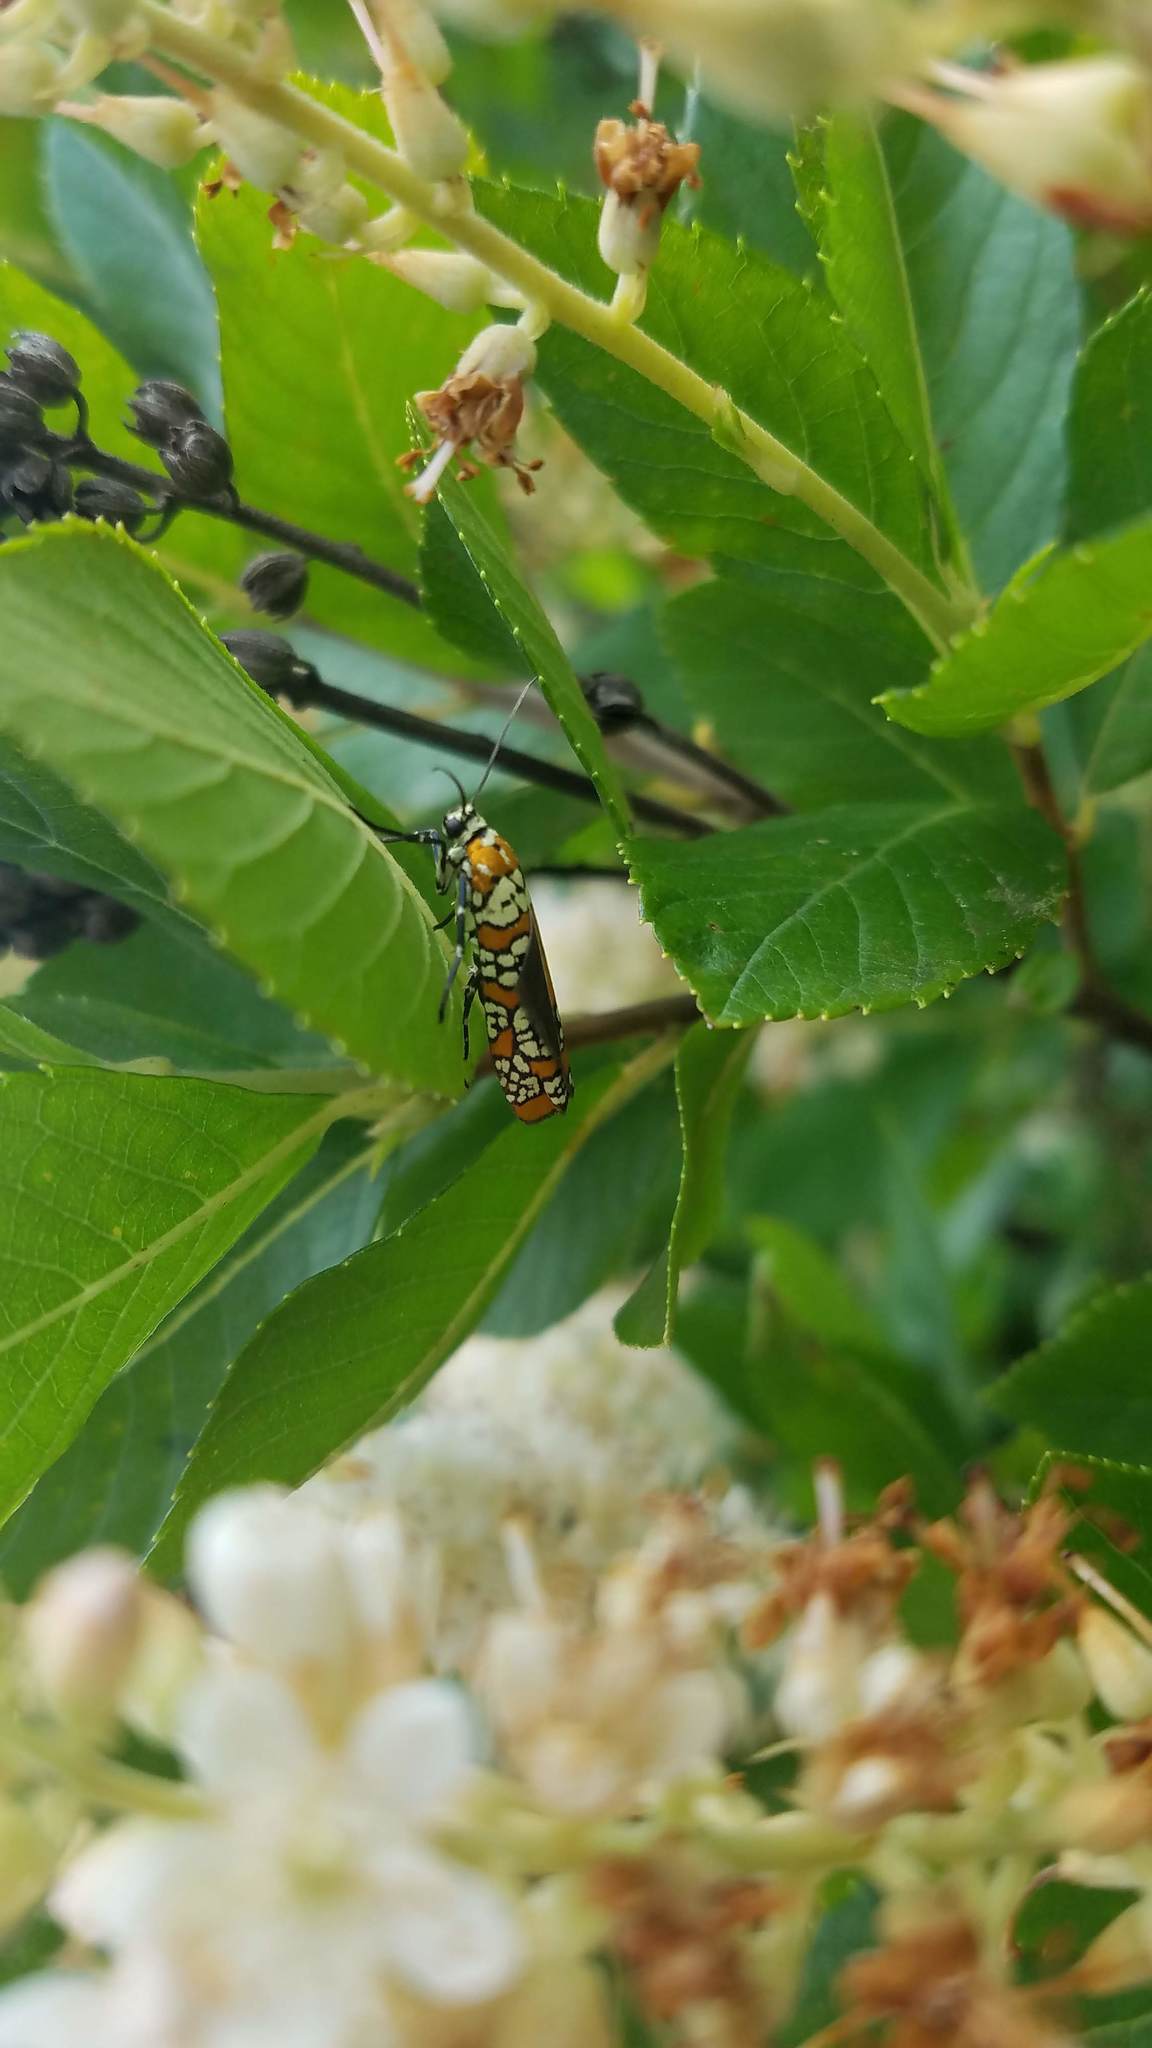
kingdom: Animalia
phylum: Arthropoda
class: Insecta
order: Lepidoptera
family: Attevidae
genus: Atteva
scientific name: Atteva punctella
